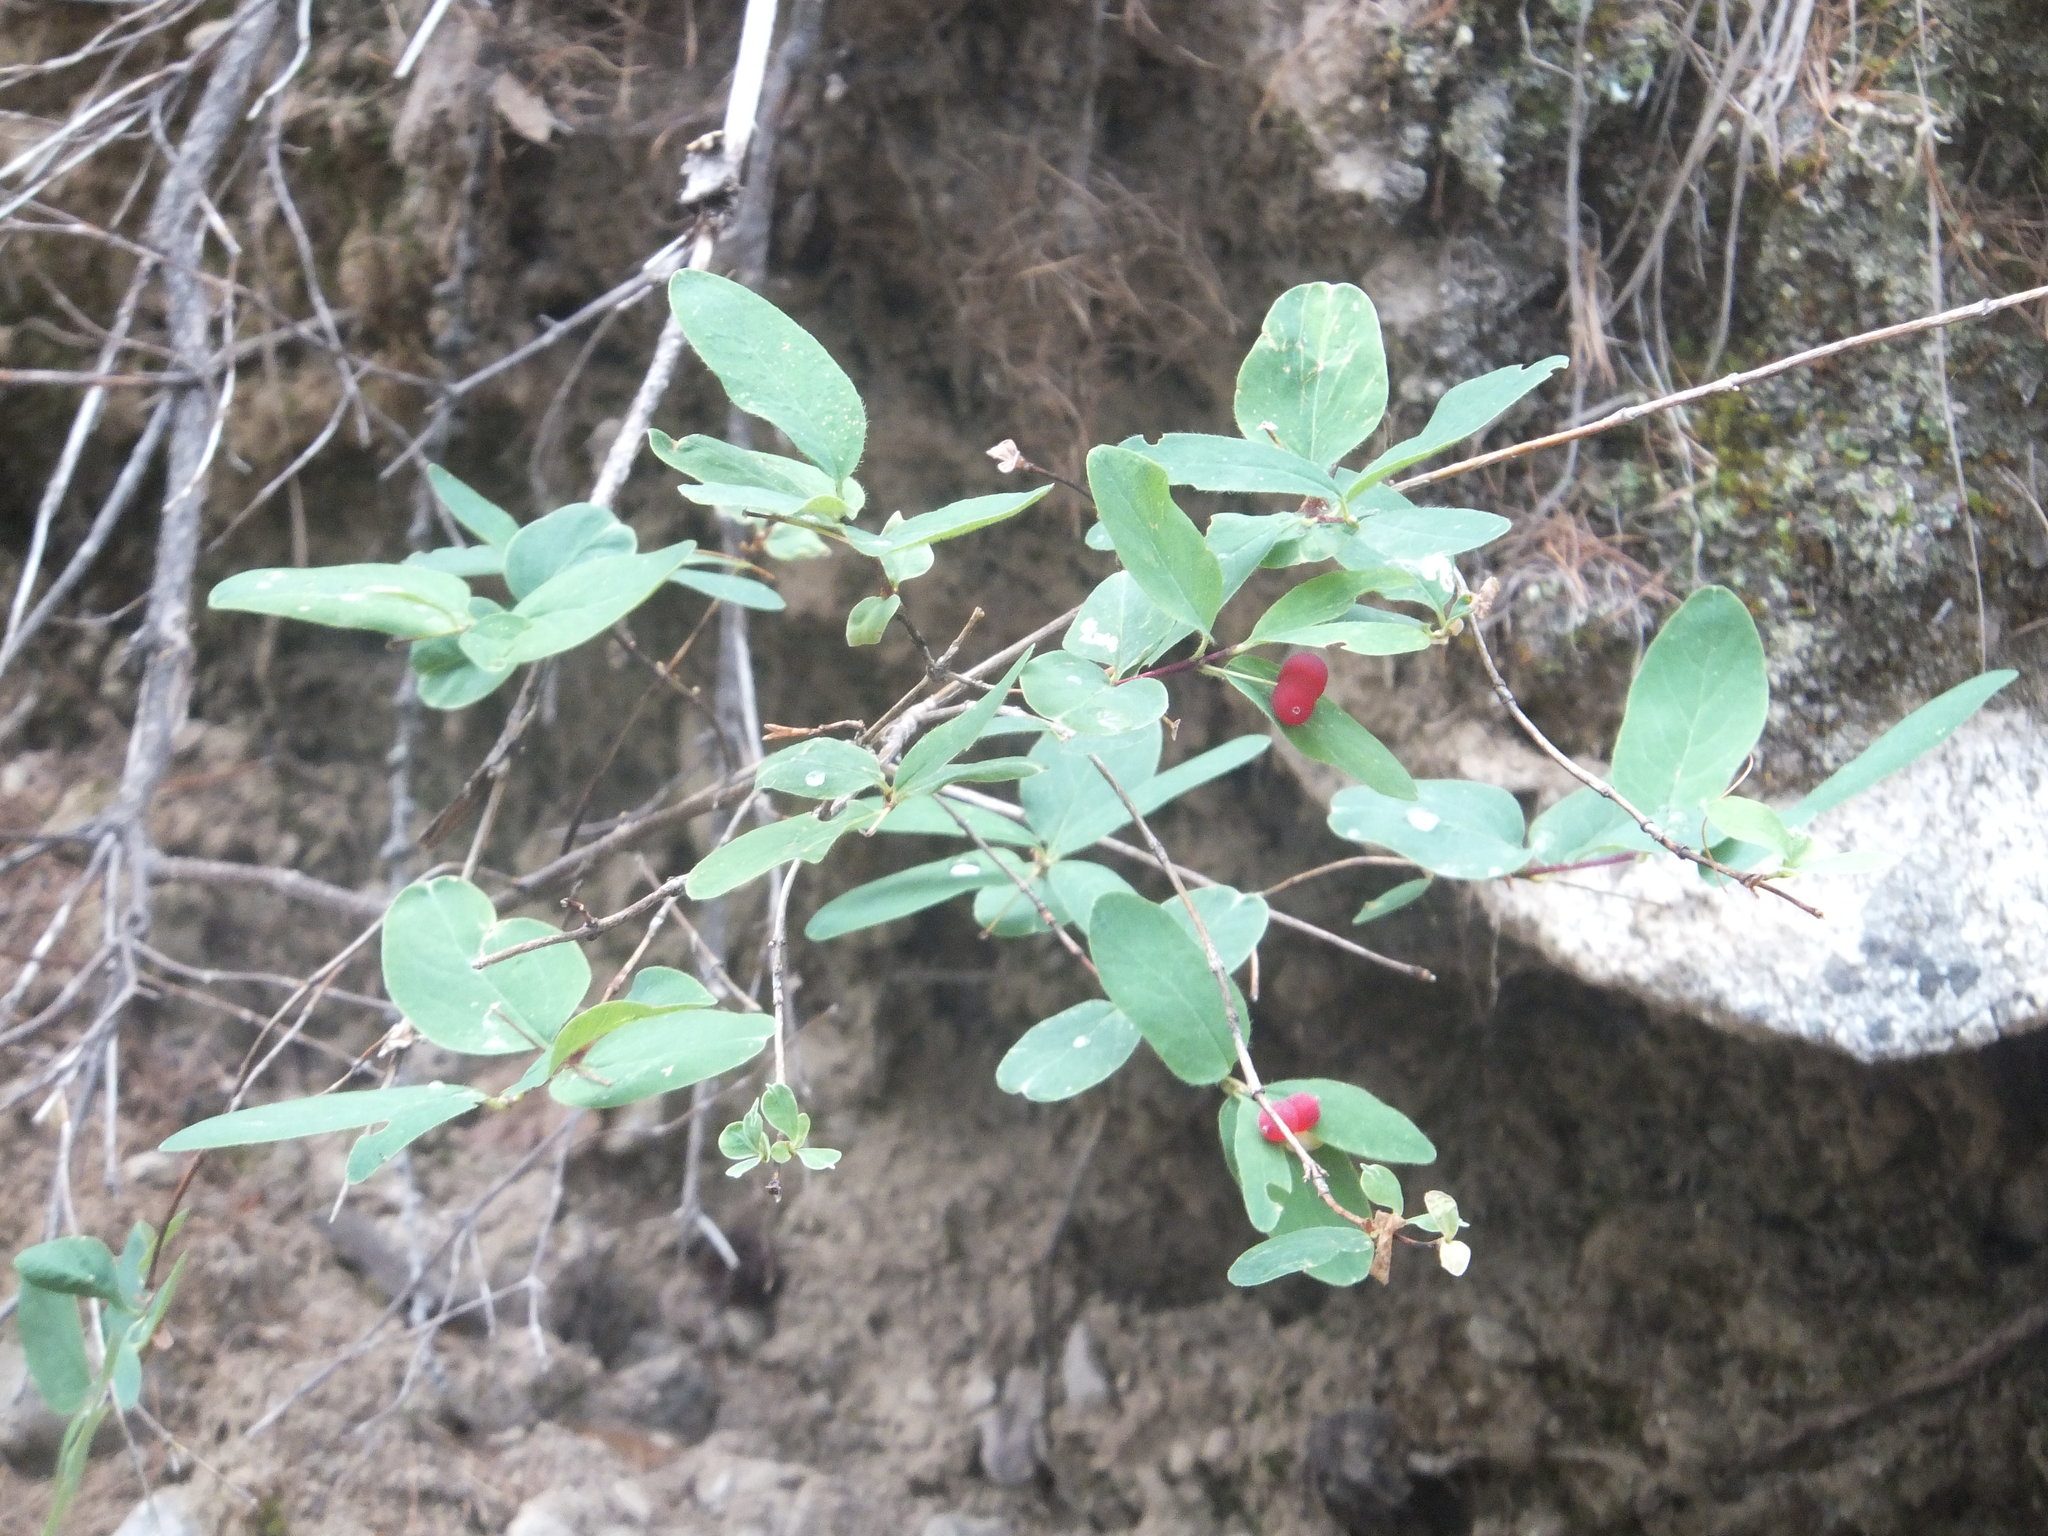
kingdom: Plantae
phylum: Tracheophyta
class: Magnoliopsida
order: Dipsacales
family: Caprifoliaceae
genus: Lonicera
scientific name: Lonicera utahensis
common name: Utah honeysuckle
